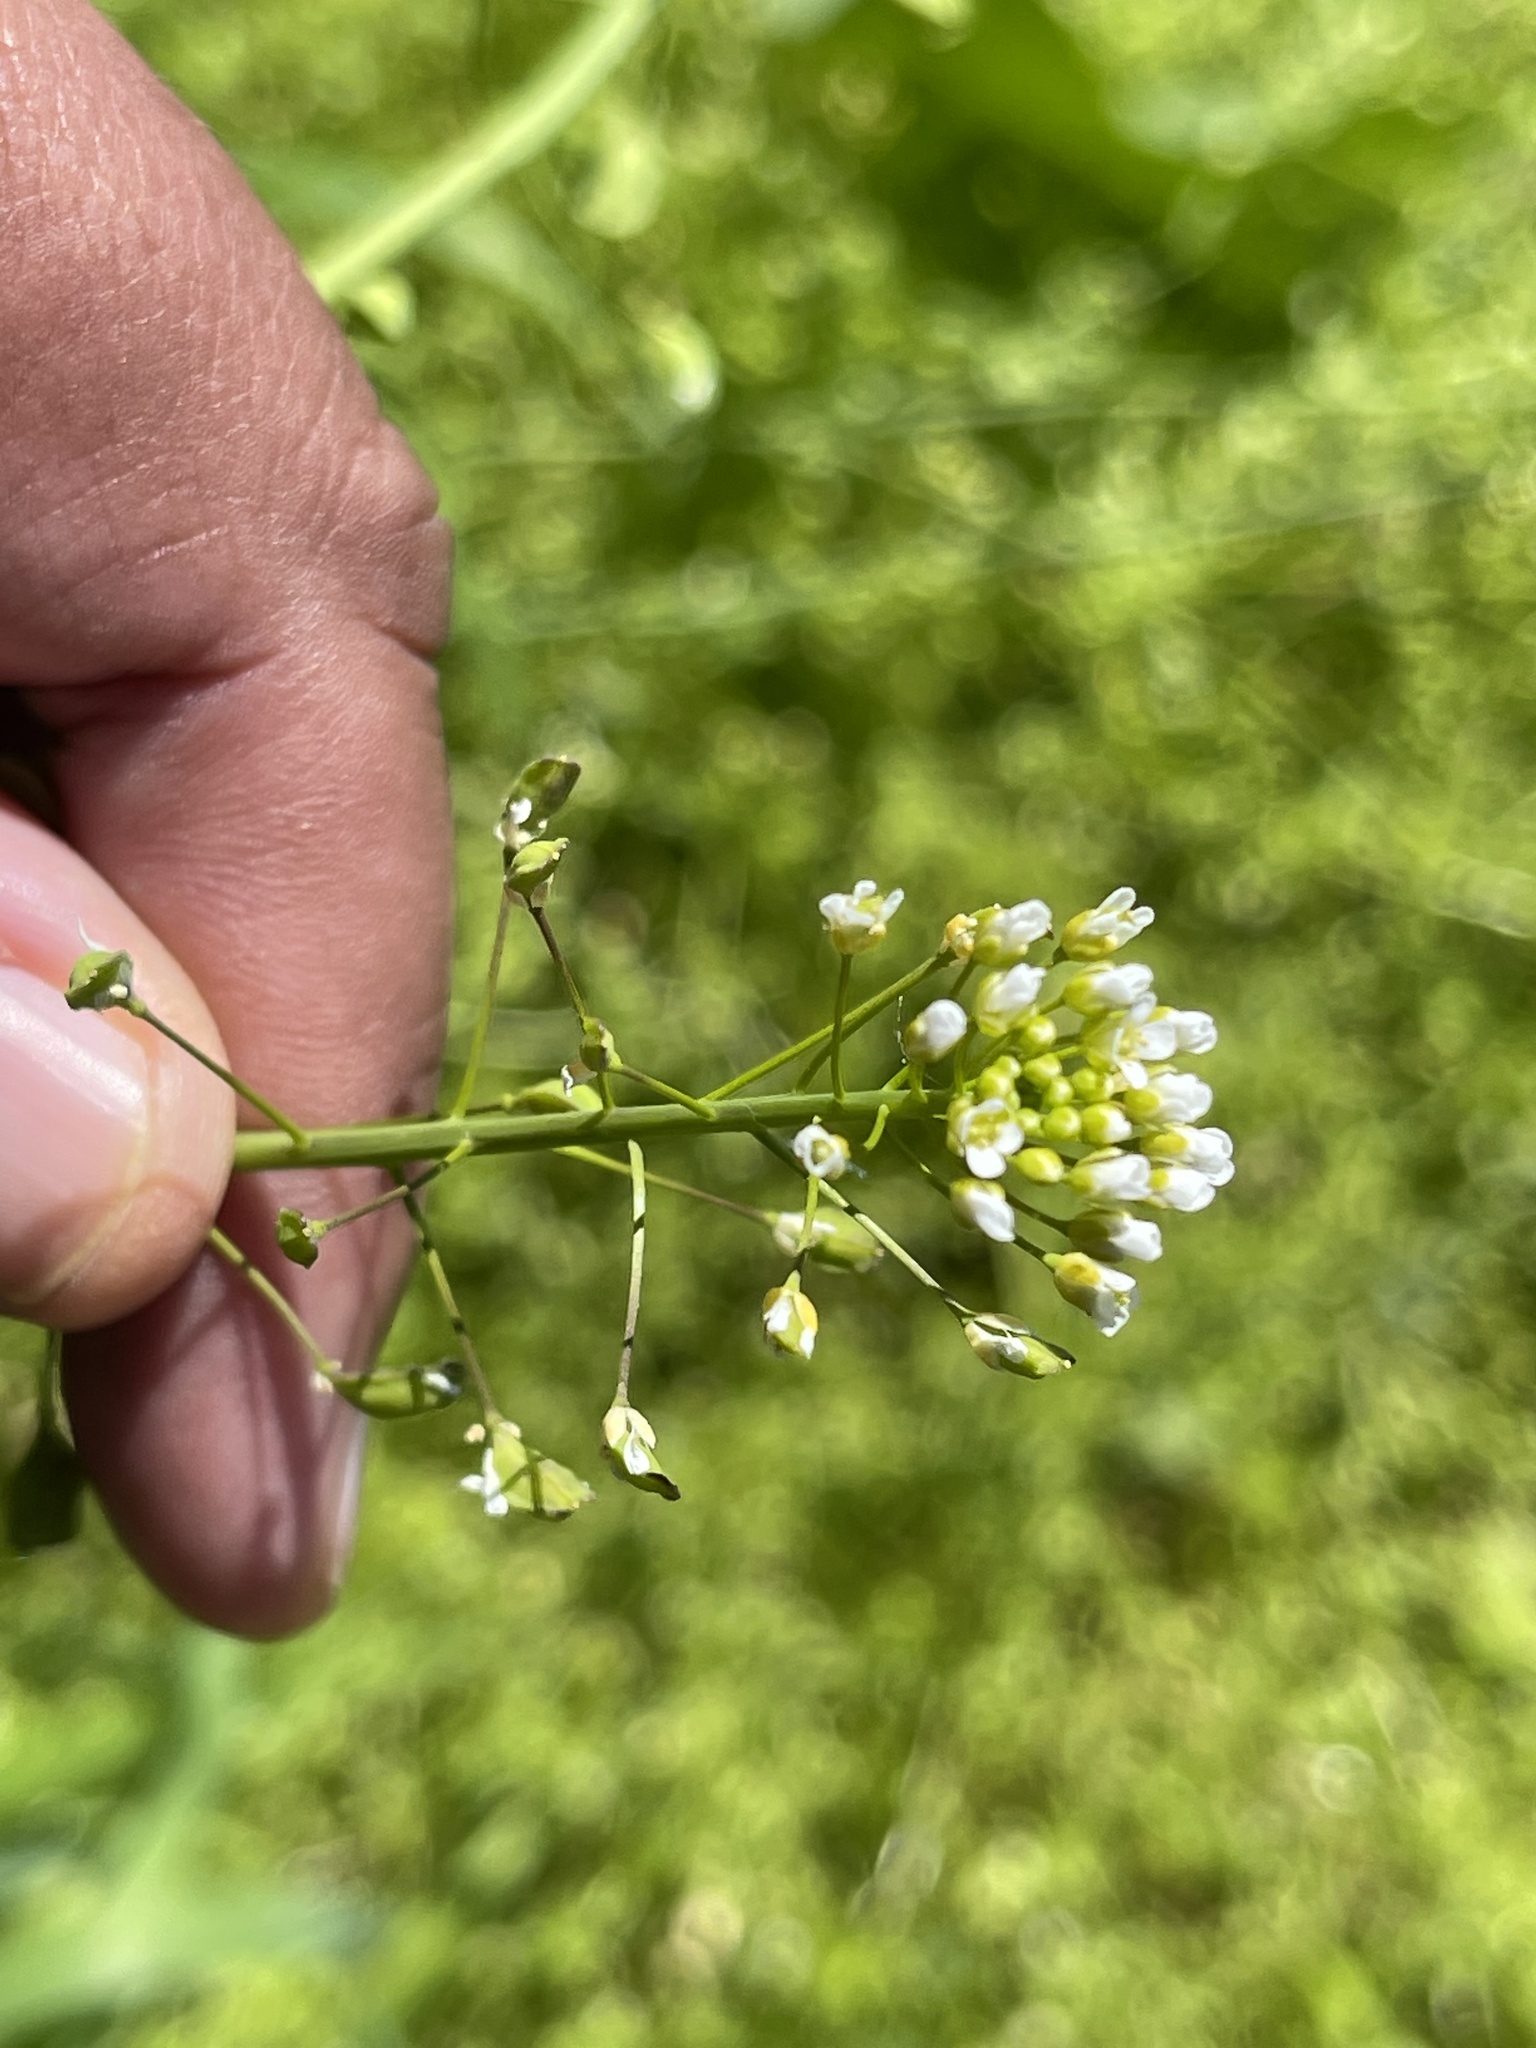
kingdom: Plantae
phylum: Tracheophyta
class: Magnoliopsida
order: Brassicales
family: Brassicaceae
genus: Mummenhoffia
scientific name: Mummenhoffia alliacea
